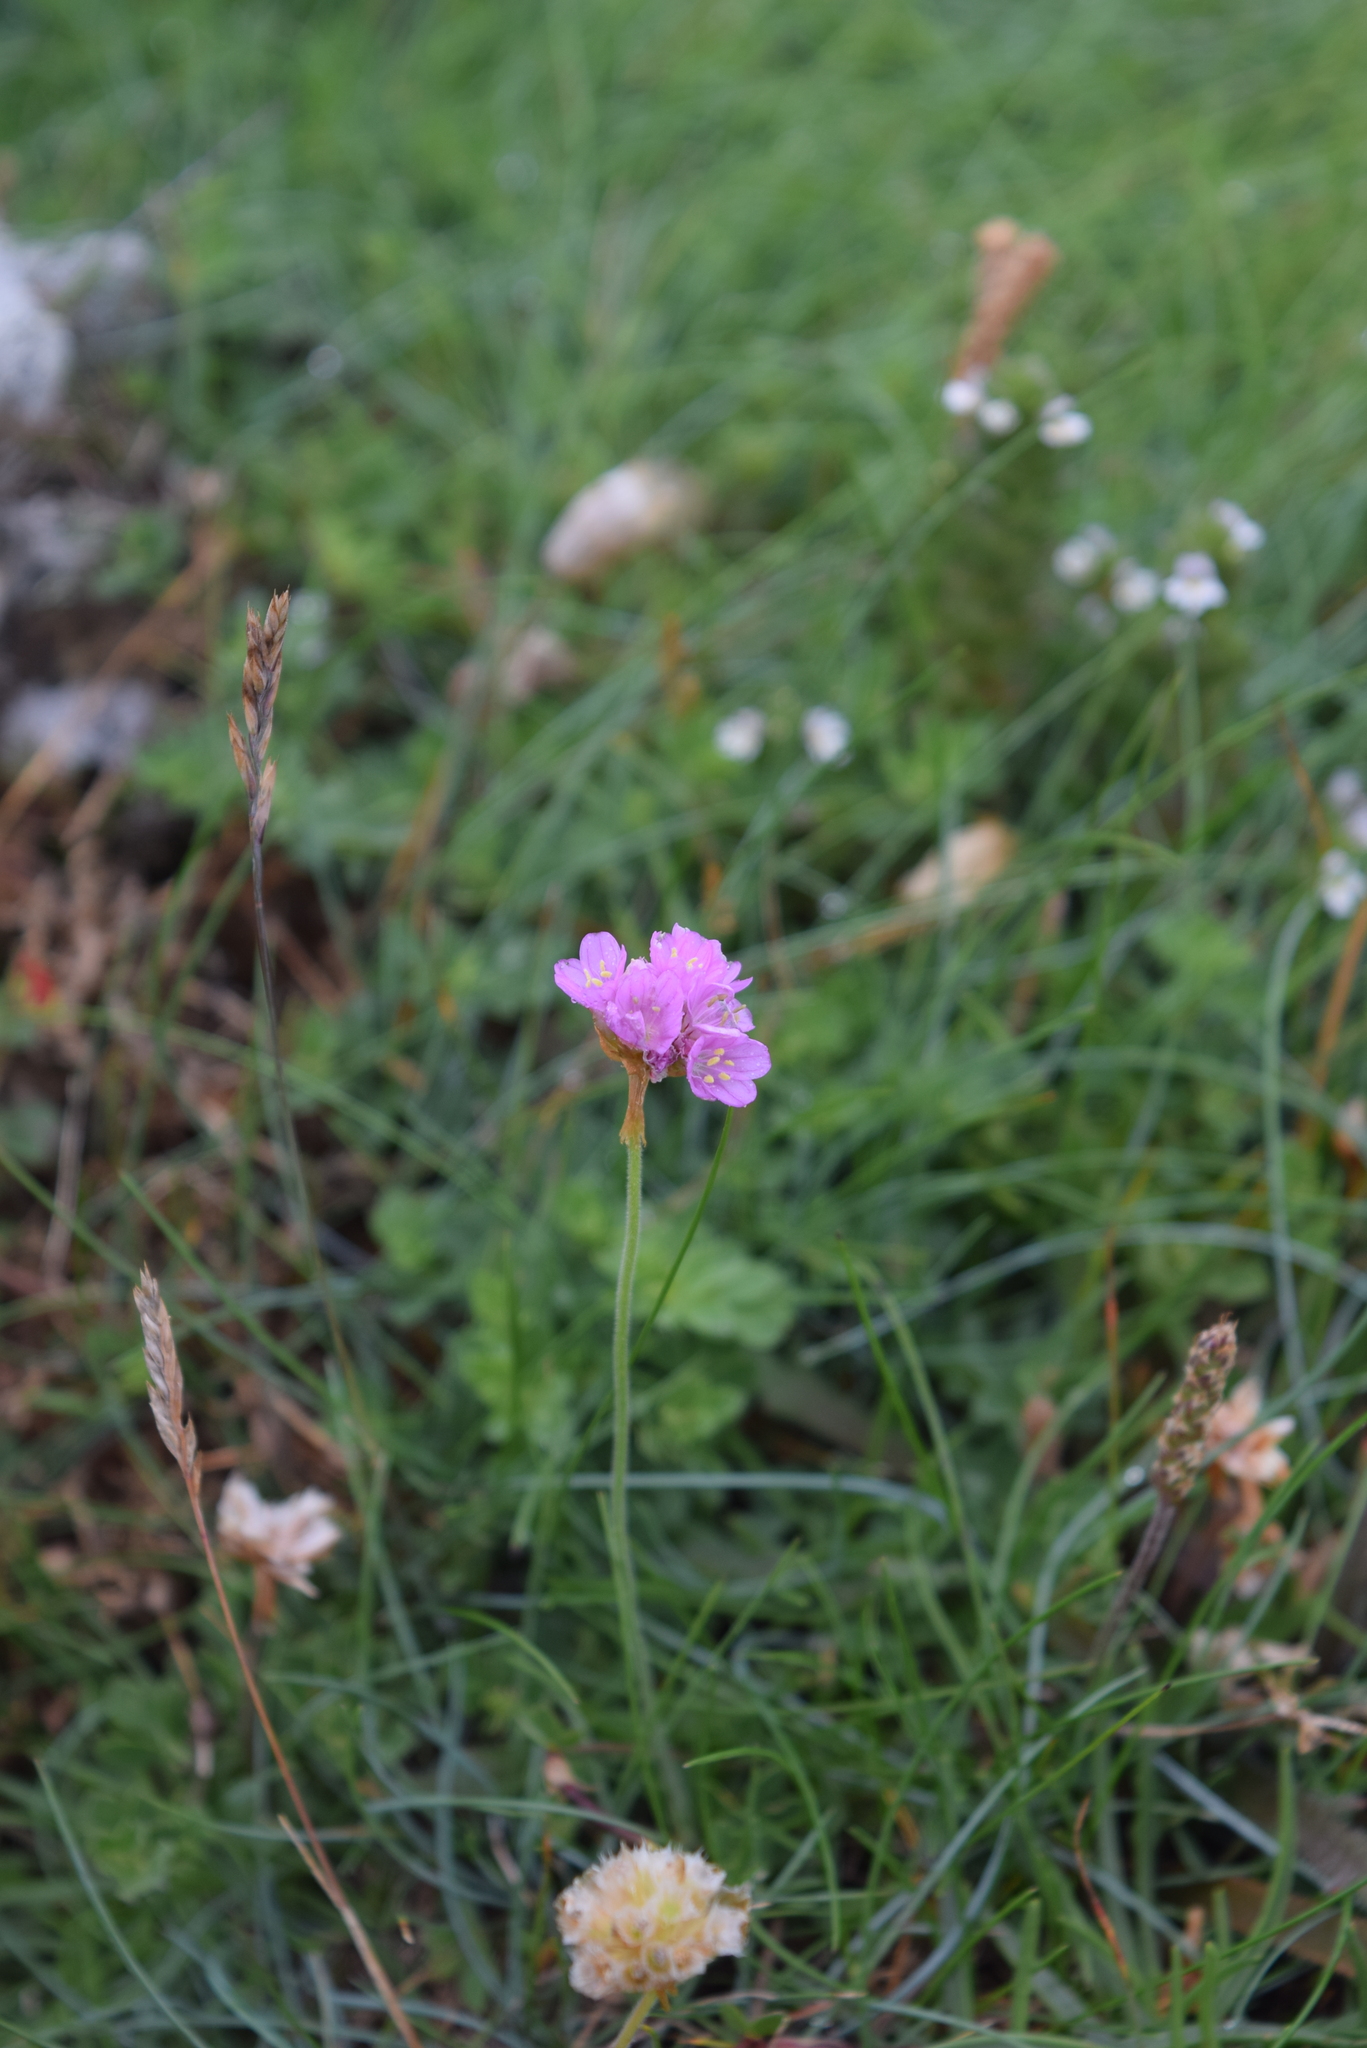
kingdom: Plantae
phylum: Tracheophyta
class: Magnoliopsida
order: Caryophyllales
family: Plumbaginaceae
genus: Armeria
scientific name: Armeria maritima
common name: Thrift
